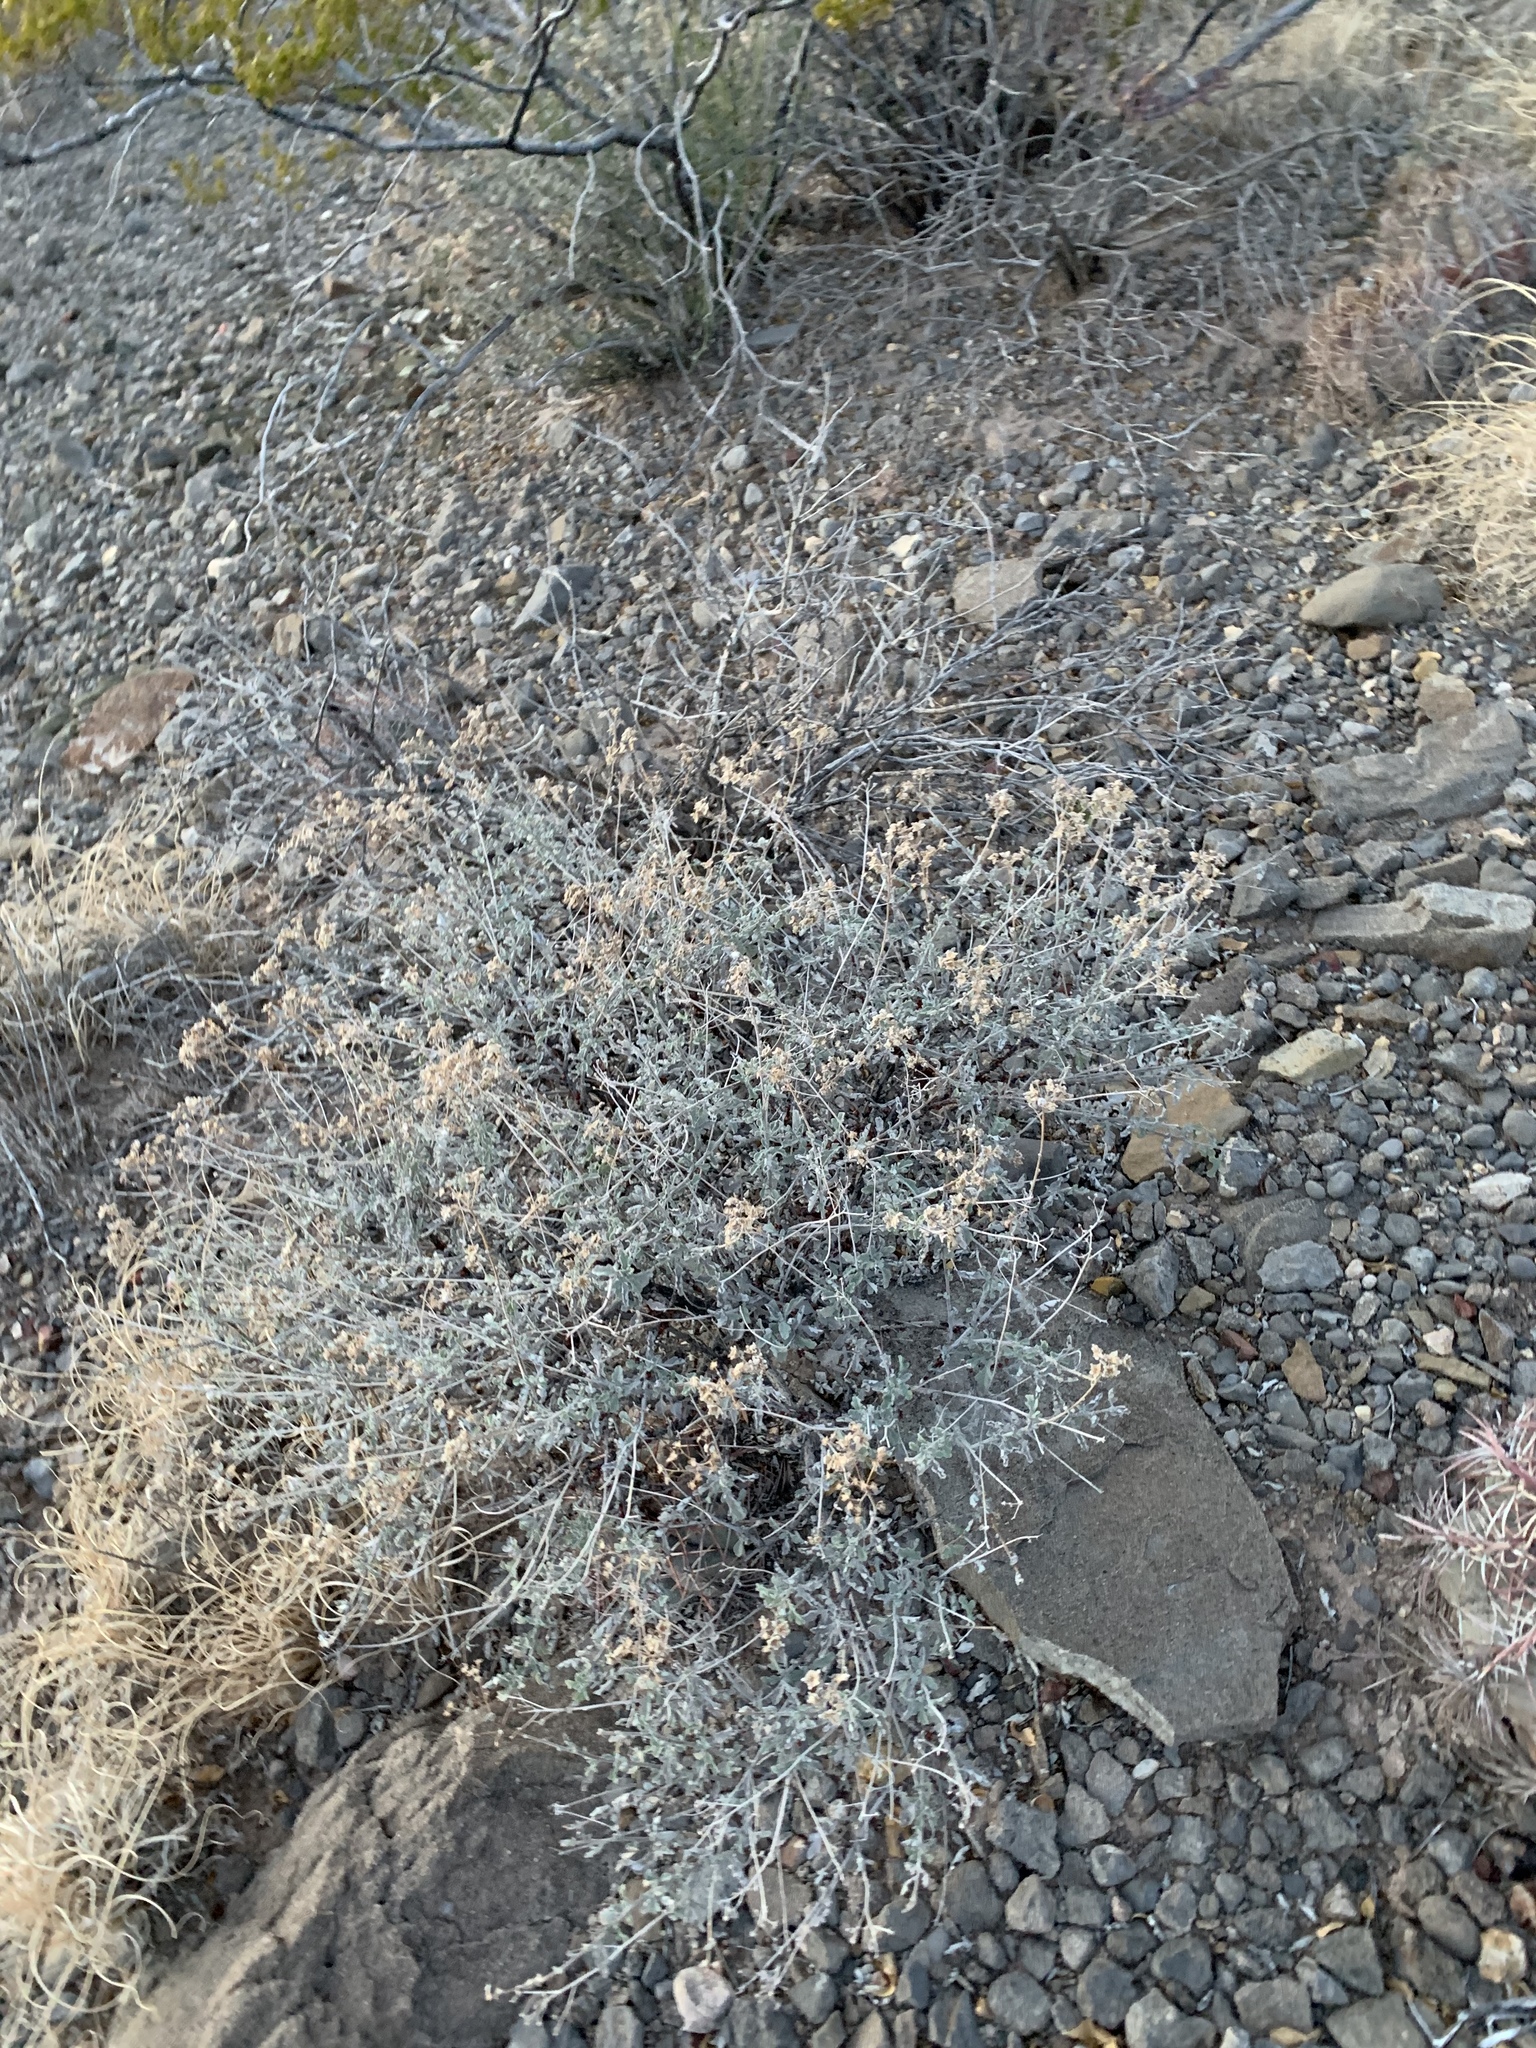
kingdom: Plantae
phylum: Tracheophyta
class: Magnoliopsida
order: Asterales
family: Asteraceae
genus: Parthenium
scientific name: Parthenium incanum
